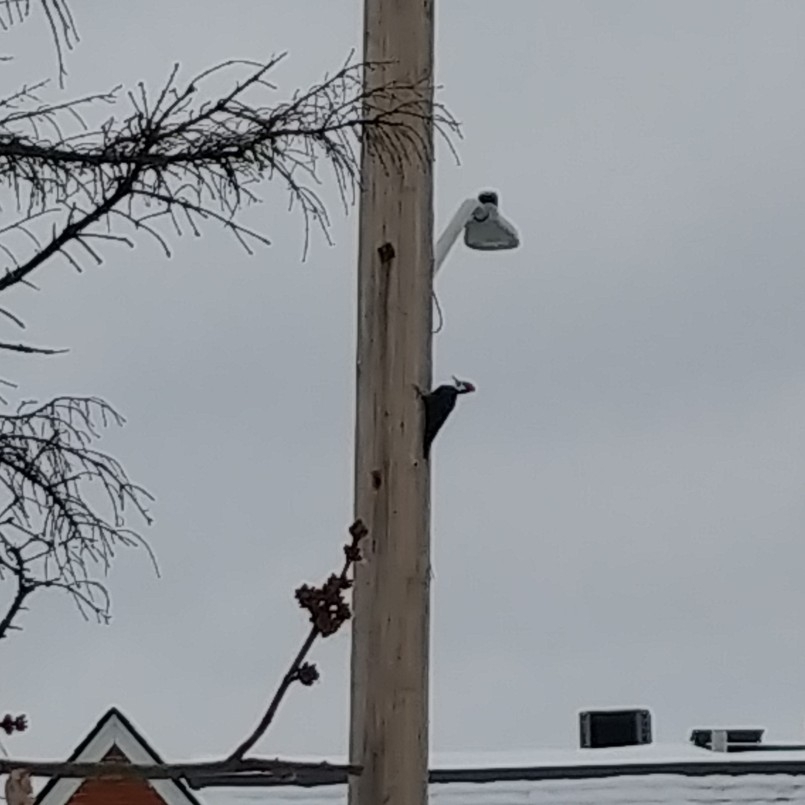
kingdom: Animalia
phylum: Chordata
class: Aves
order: Piciformes
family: Picidae
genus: Dryocopus
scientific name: Dryocopus pileatus
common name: Pileated woodpecker
